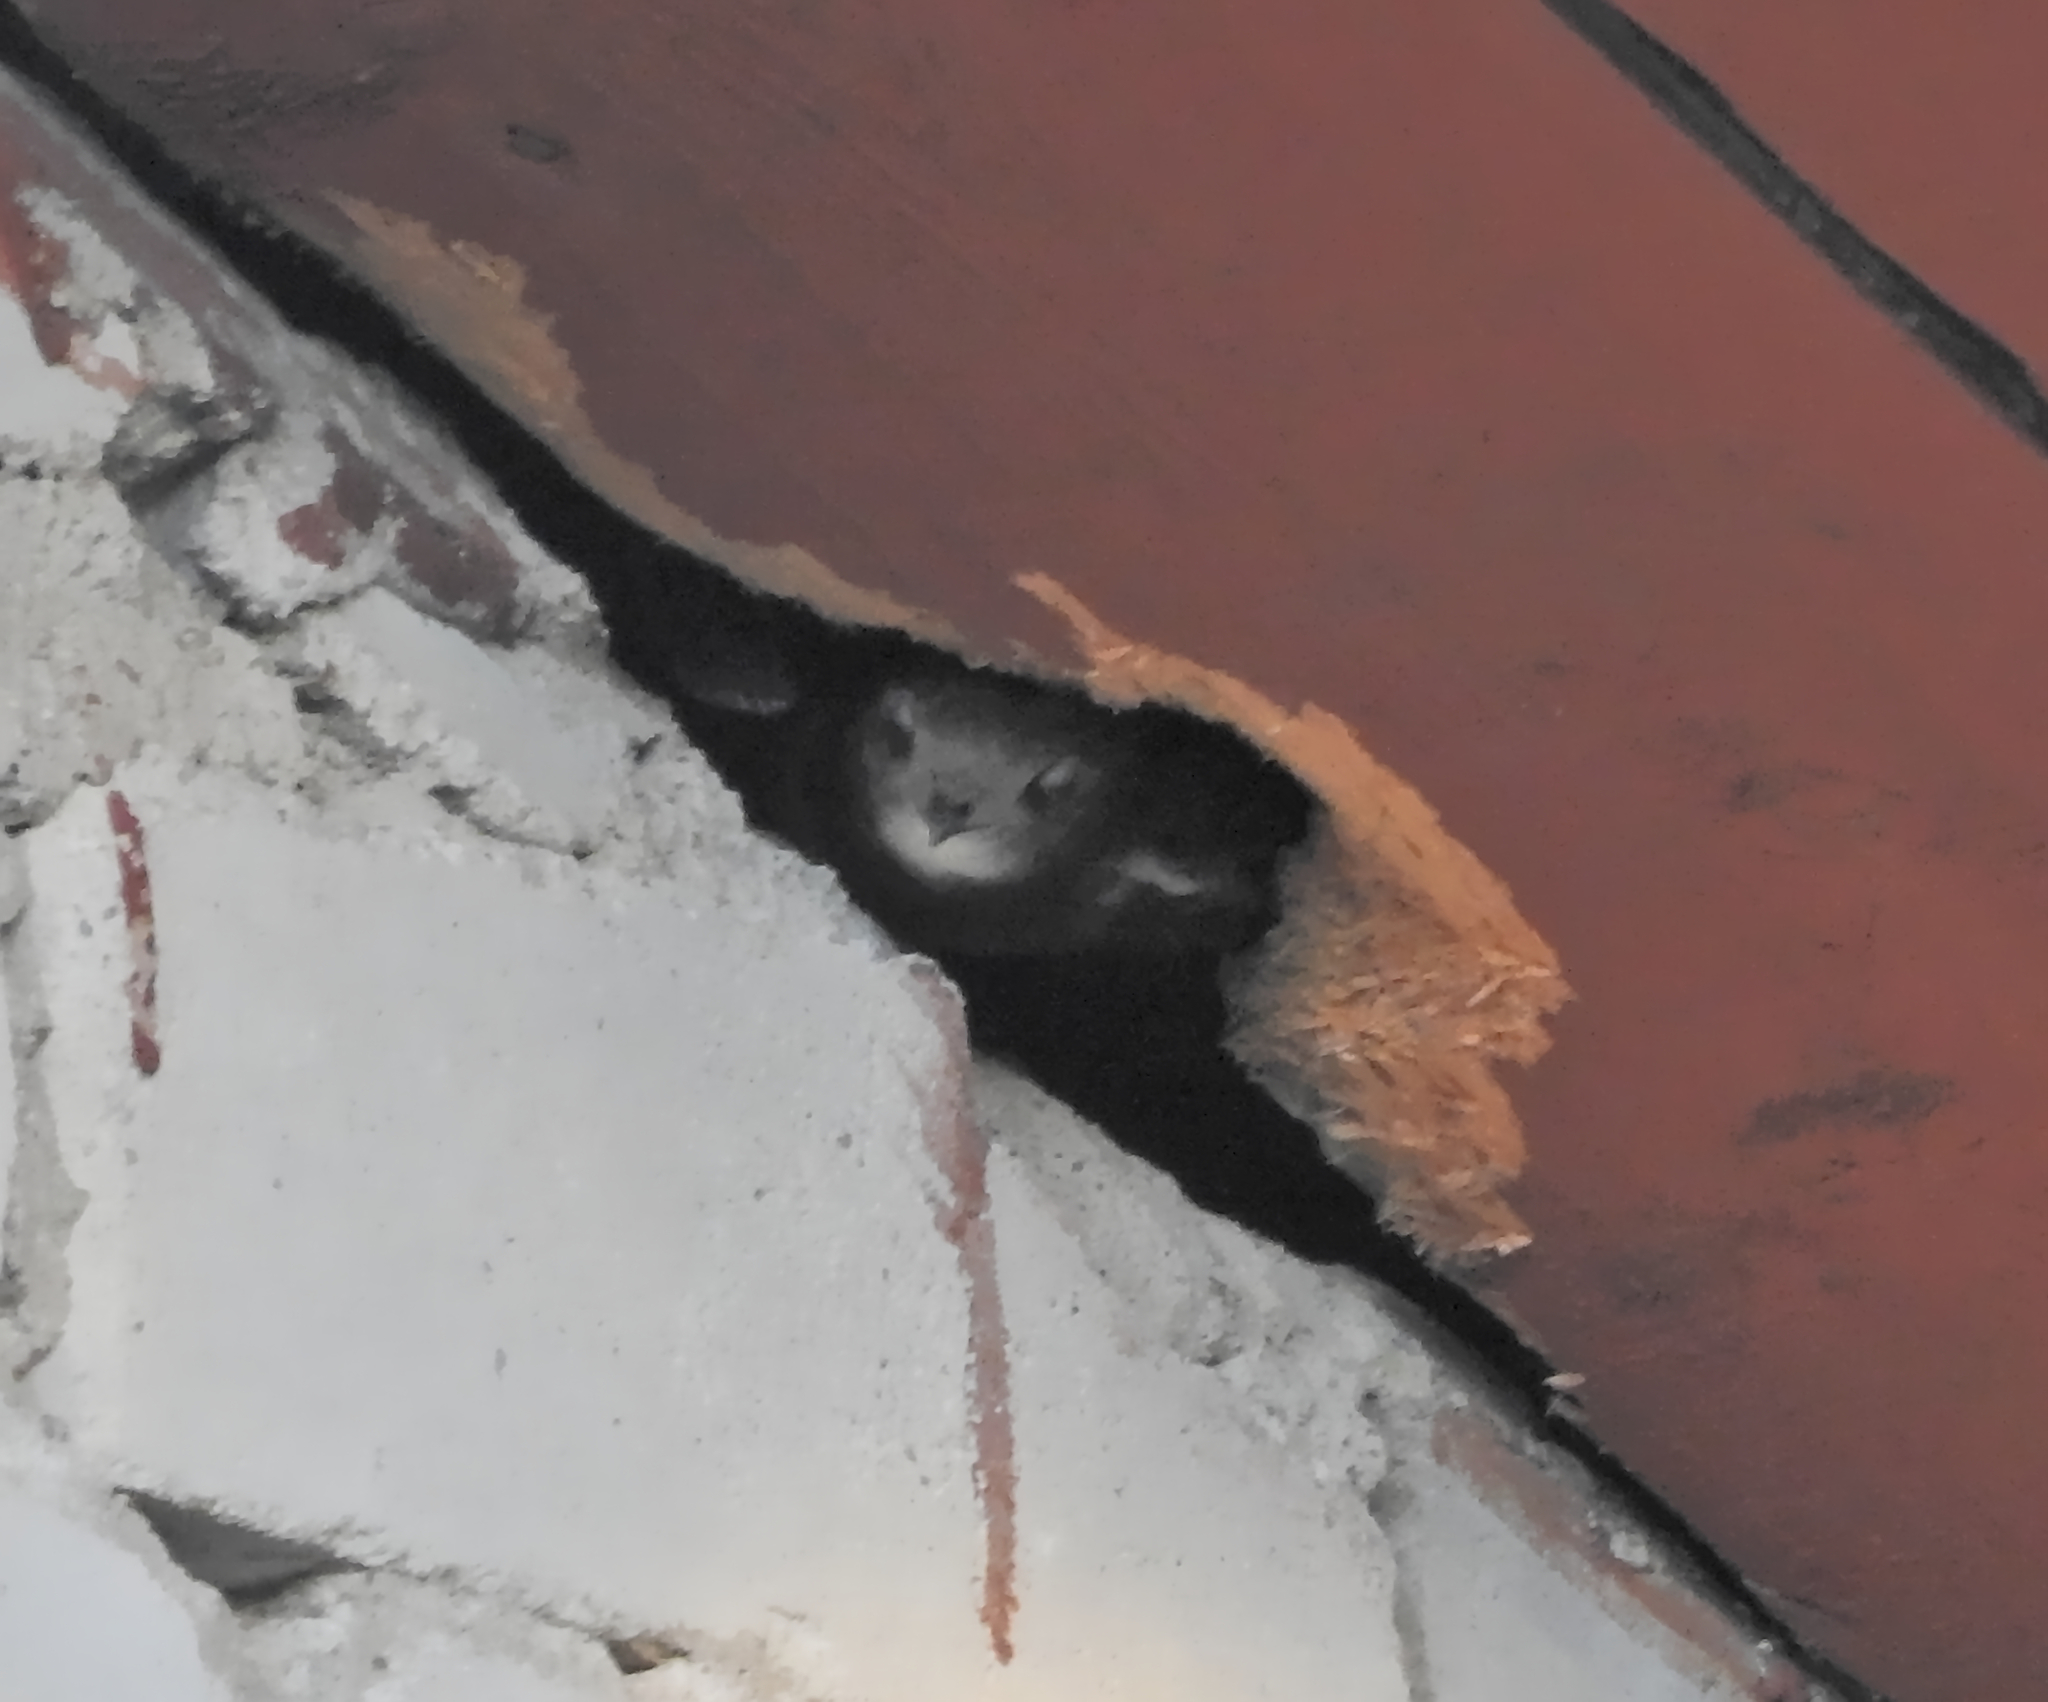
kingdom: Animalia
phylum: Chordata
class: Aves
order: Apodiformes
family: Apodidae
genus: Apus
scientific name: Apus apus
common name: Common swift
